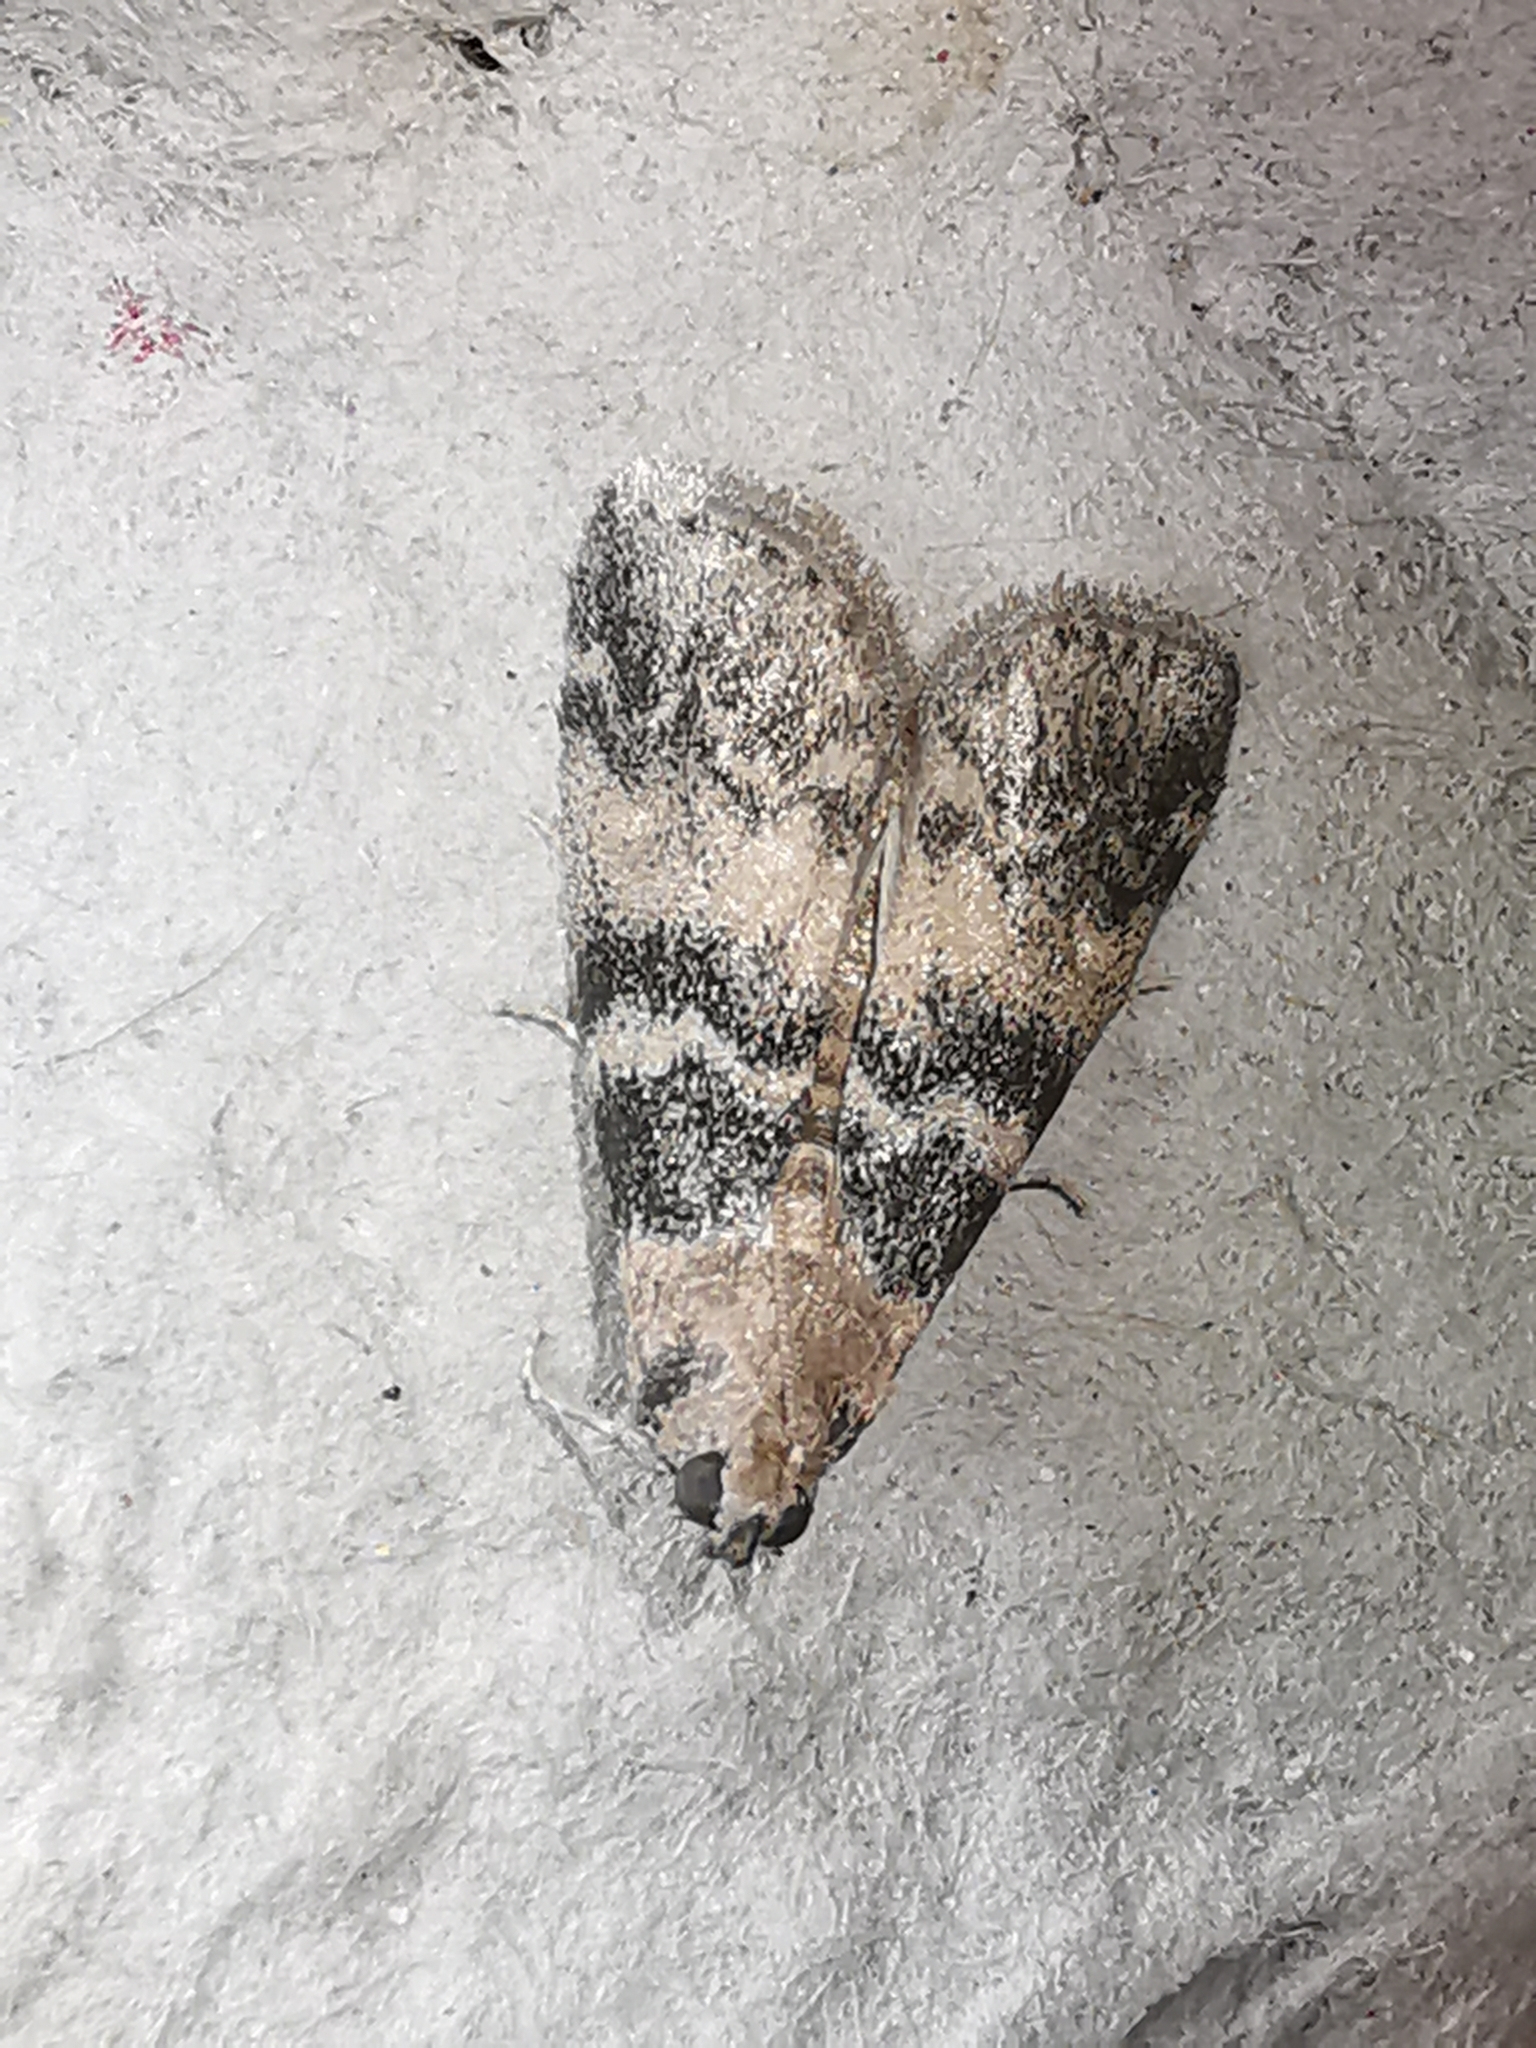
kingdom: Animalia
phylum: Arthropoda
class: Insecta
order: Lepidoptera
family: Pyralidae
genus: Euzophera
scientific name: Euzophera pinguis
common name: Ash-bark knot-horn
